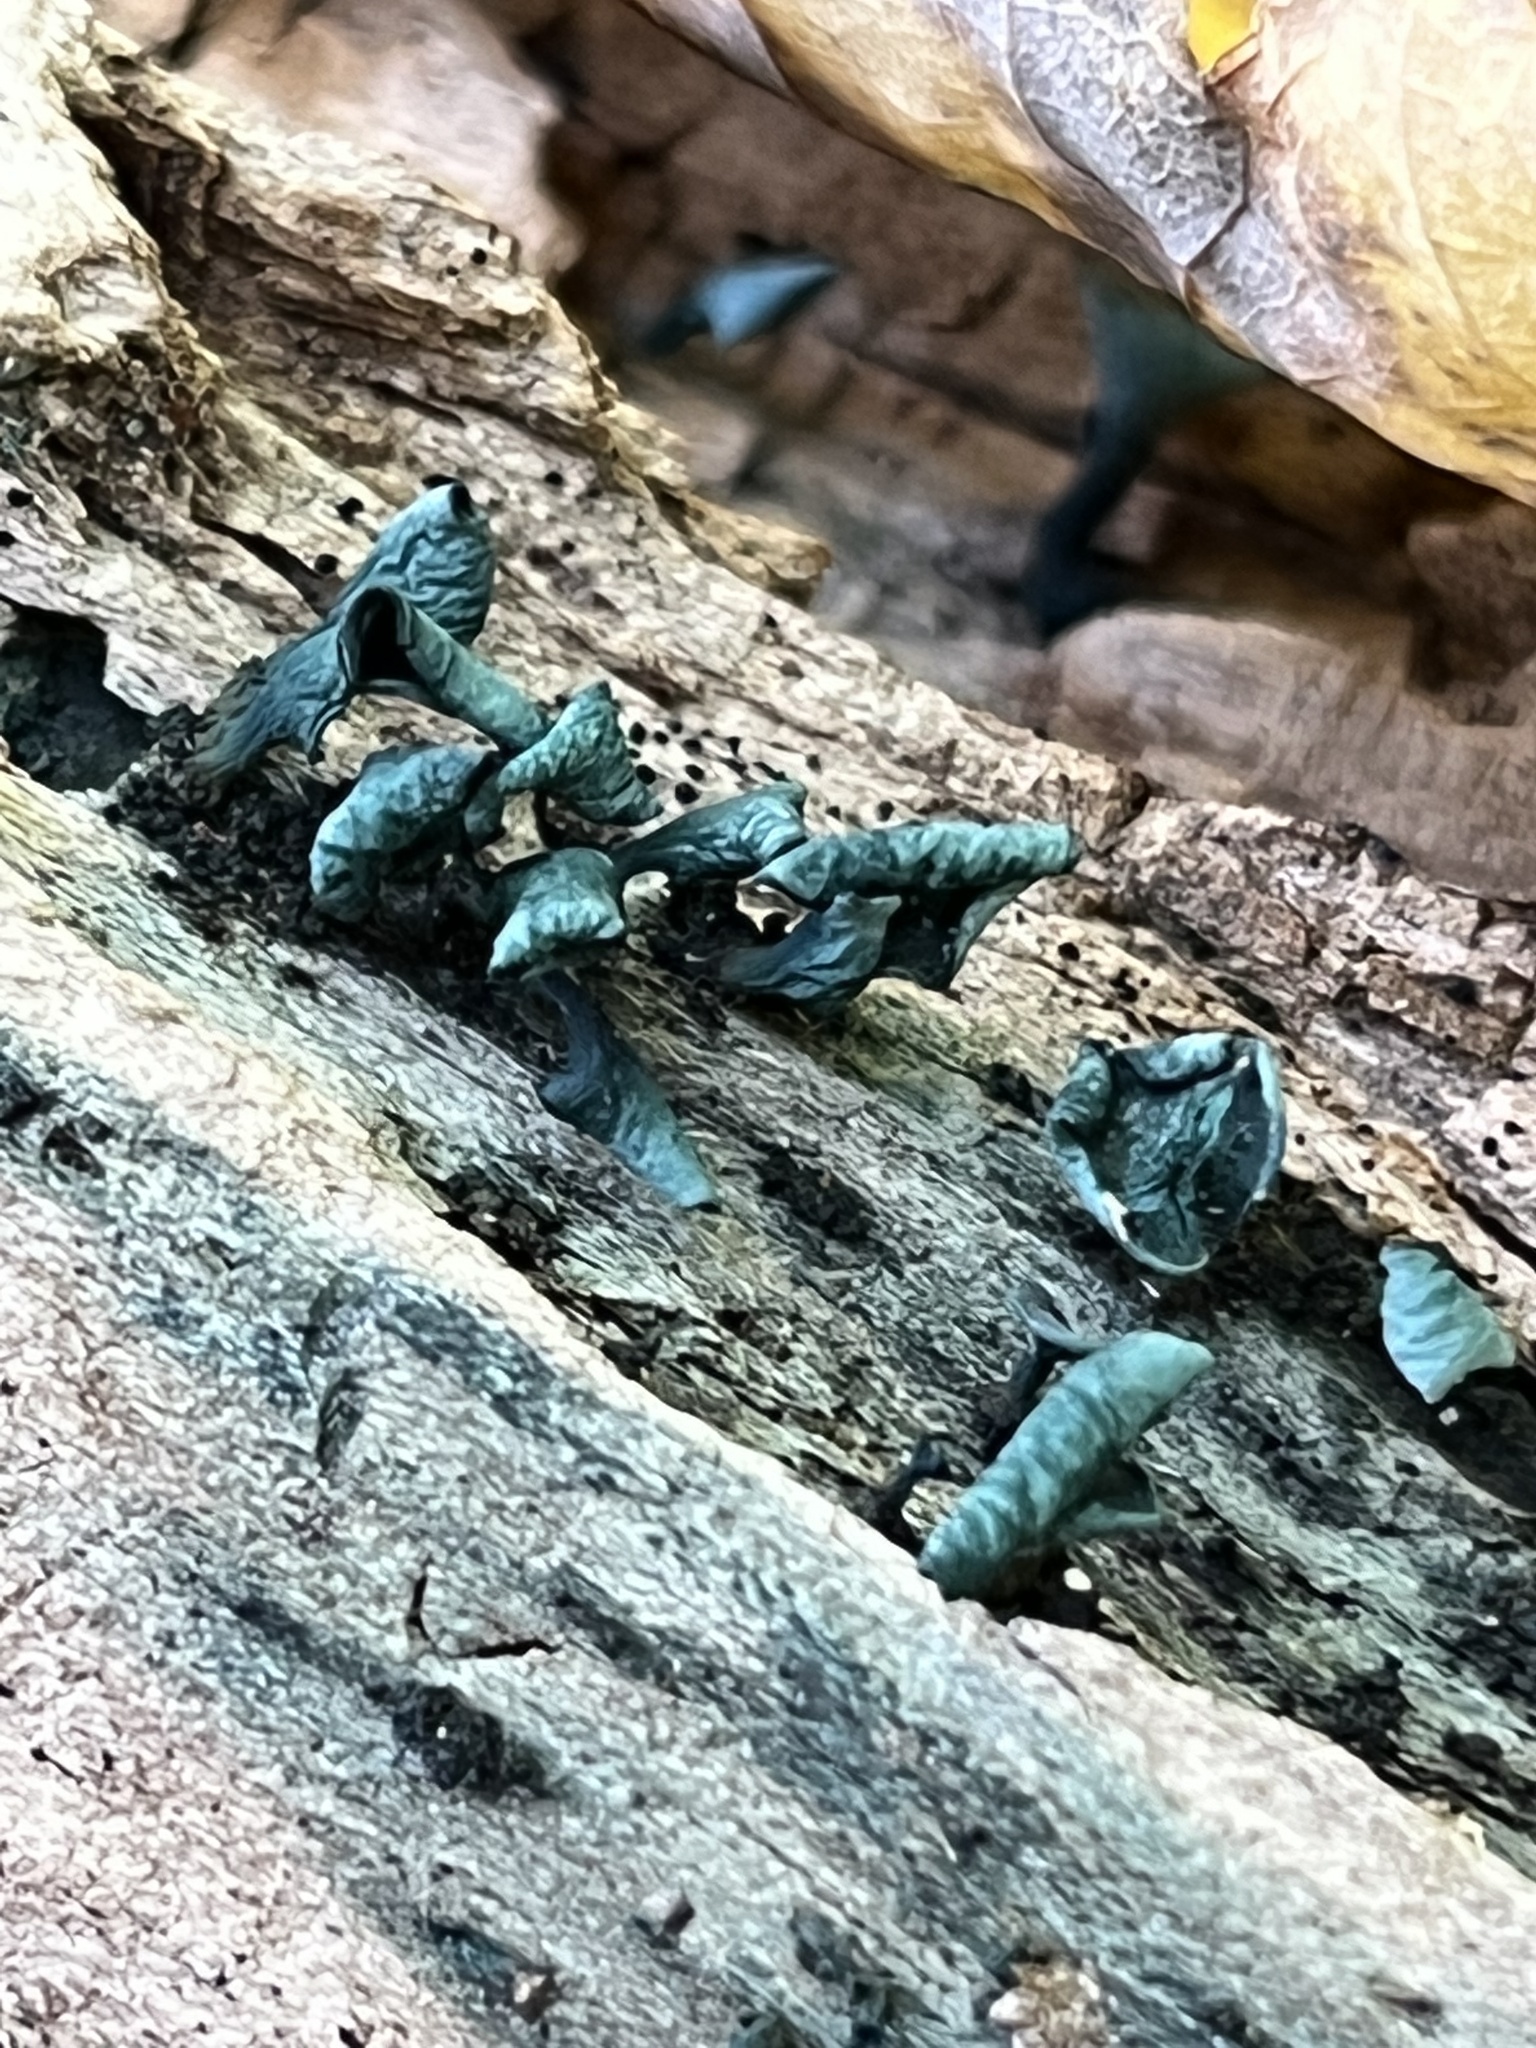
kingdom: Fungi
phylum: Ascomycota
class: Leotiomycetes
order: Helotiales
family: Chlorociboriaceae
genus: Chlorociboria
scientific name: Chlorociboria aeruginascens
